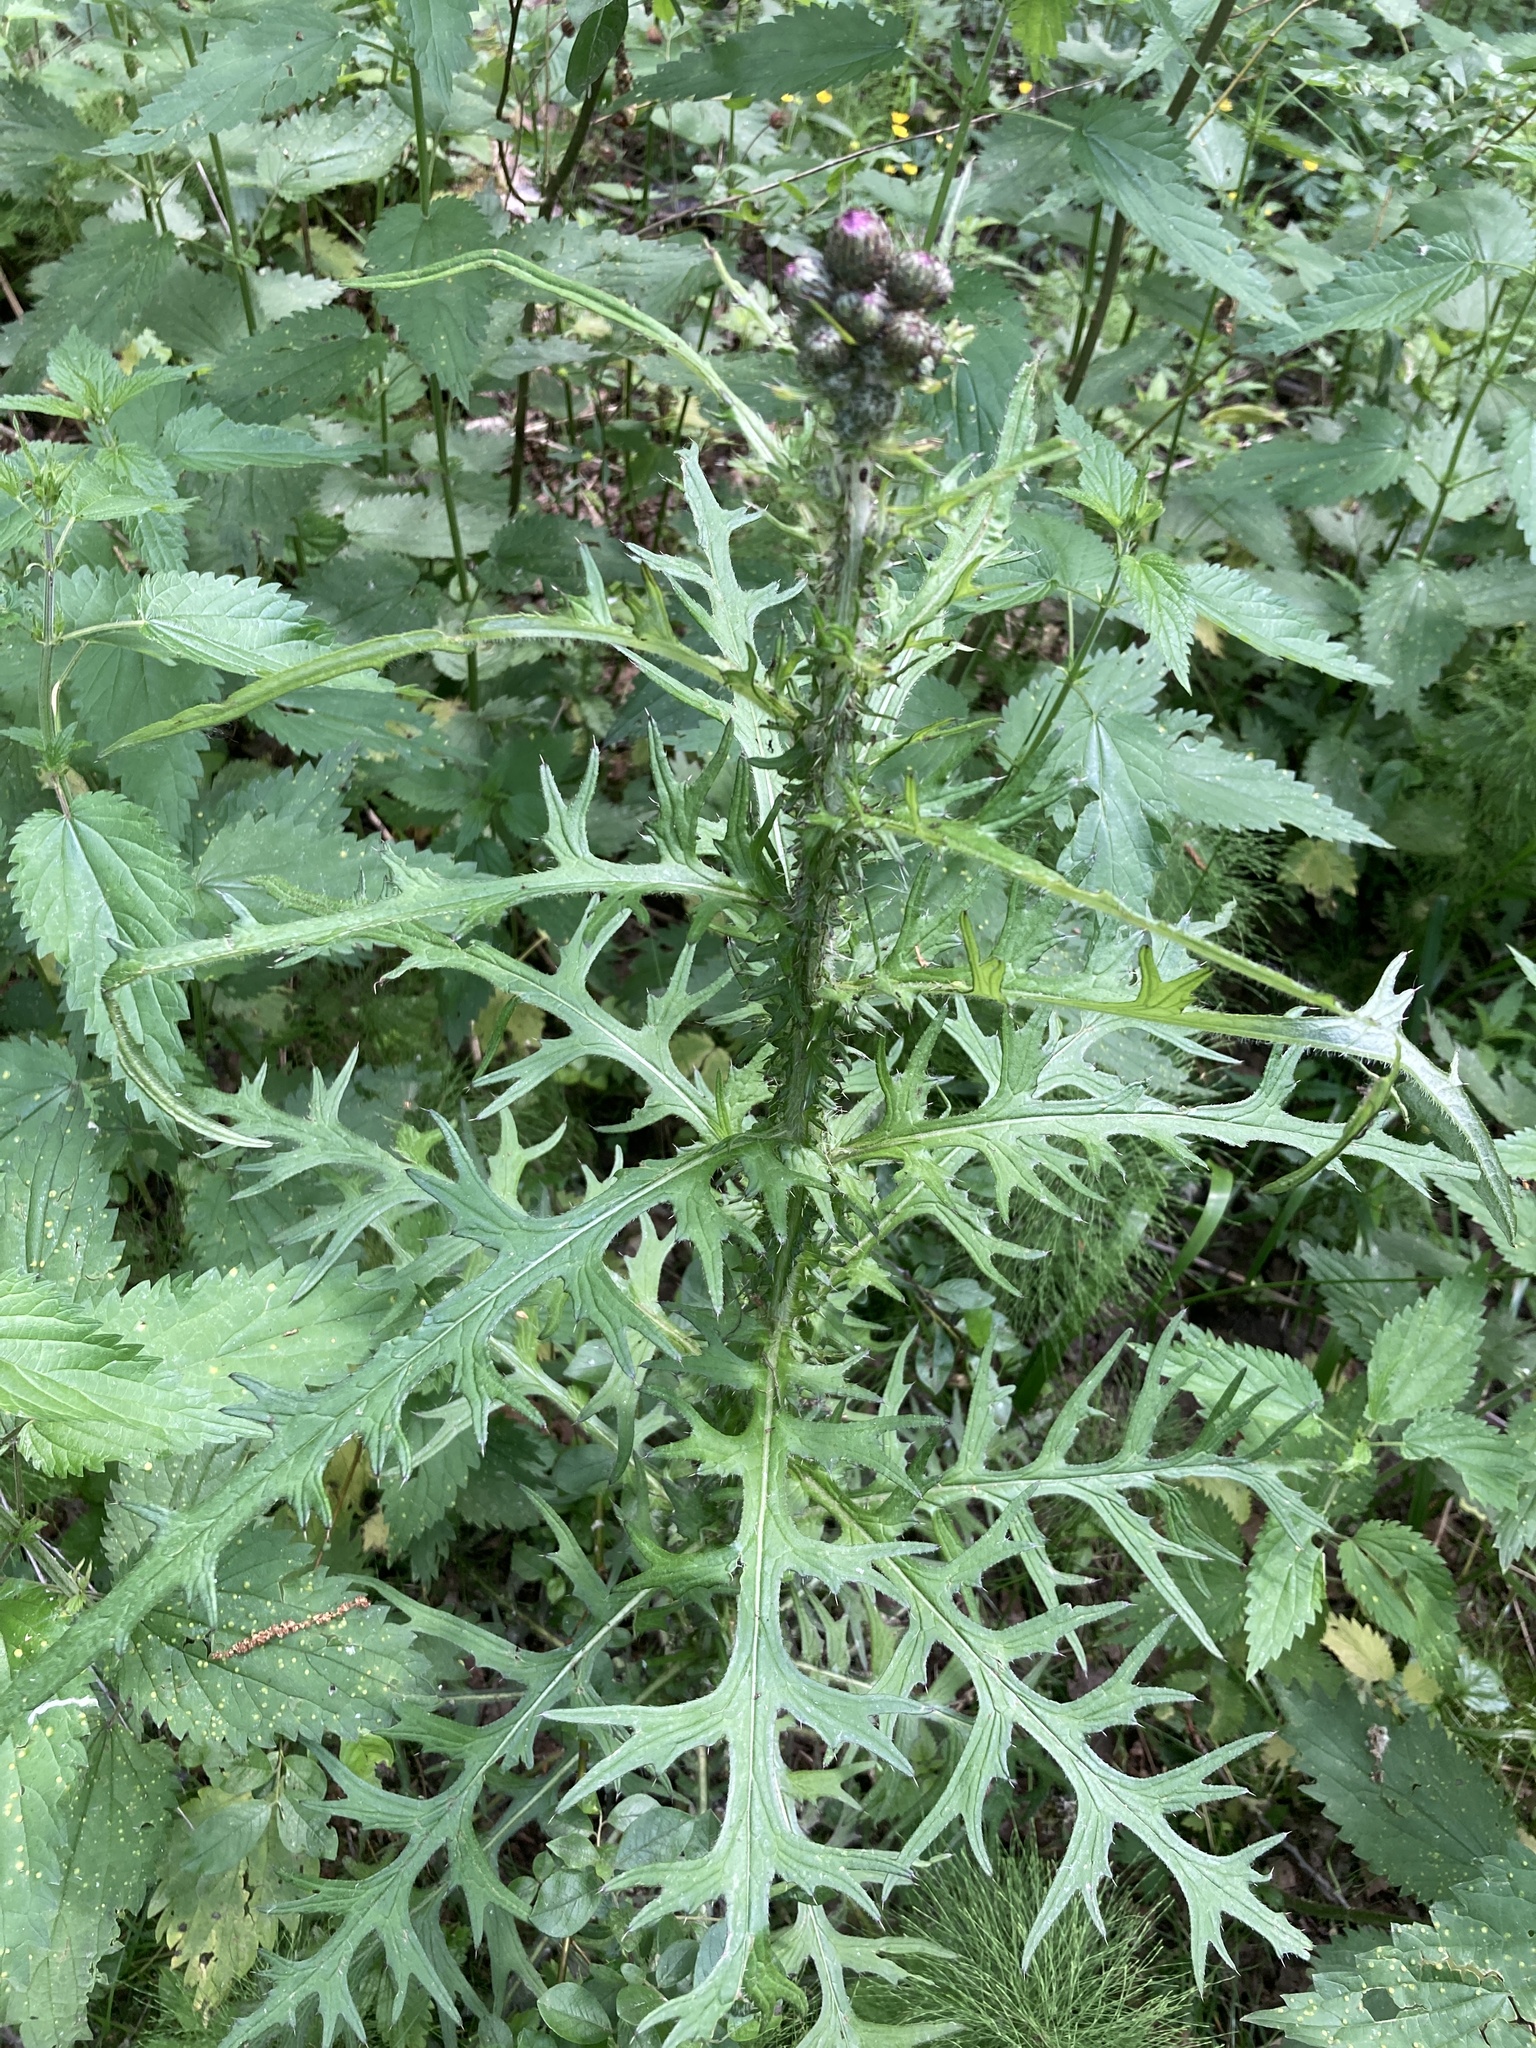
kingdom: Plantae
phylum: Tracheophyta
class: Magnoliopsida
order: Asterales
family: Asteraceae
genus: Cirsium
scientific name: Cirsium palustre
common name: Marsh thistle
